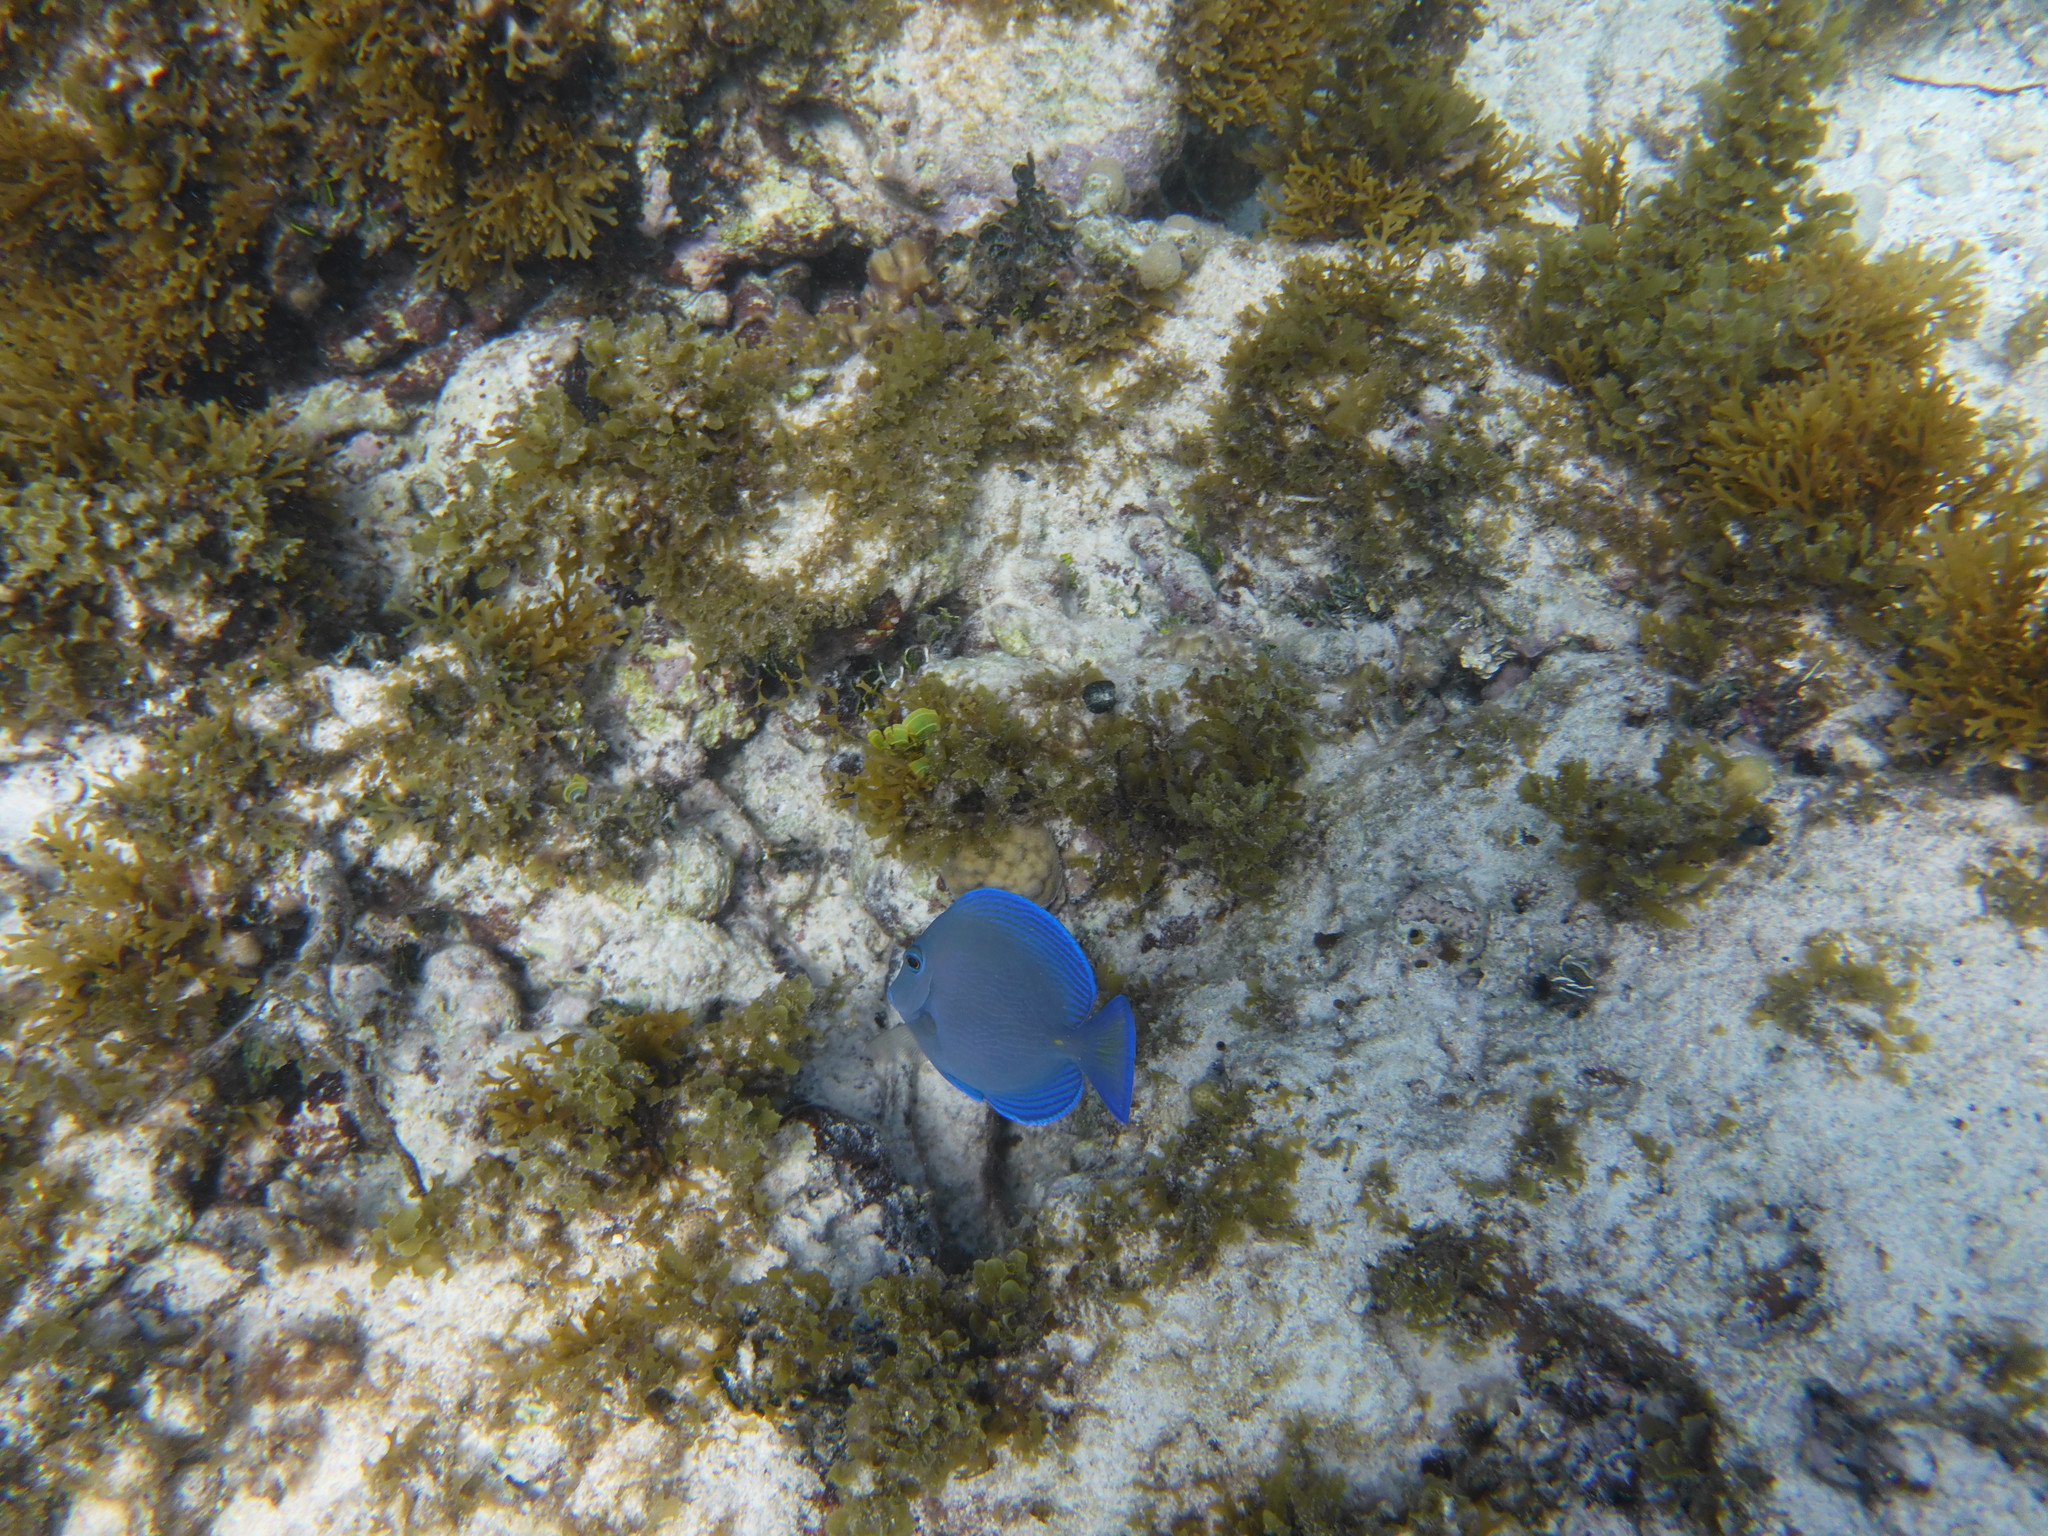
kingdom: Animalia
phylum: Chordata
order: Perciformes
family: Acanthuridae
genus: Acanthurus
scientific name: Acanthurus coeruleus
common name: Blue tang
